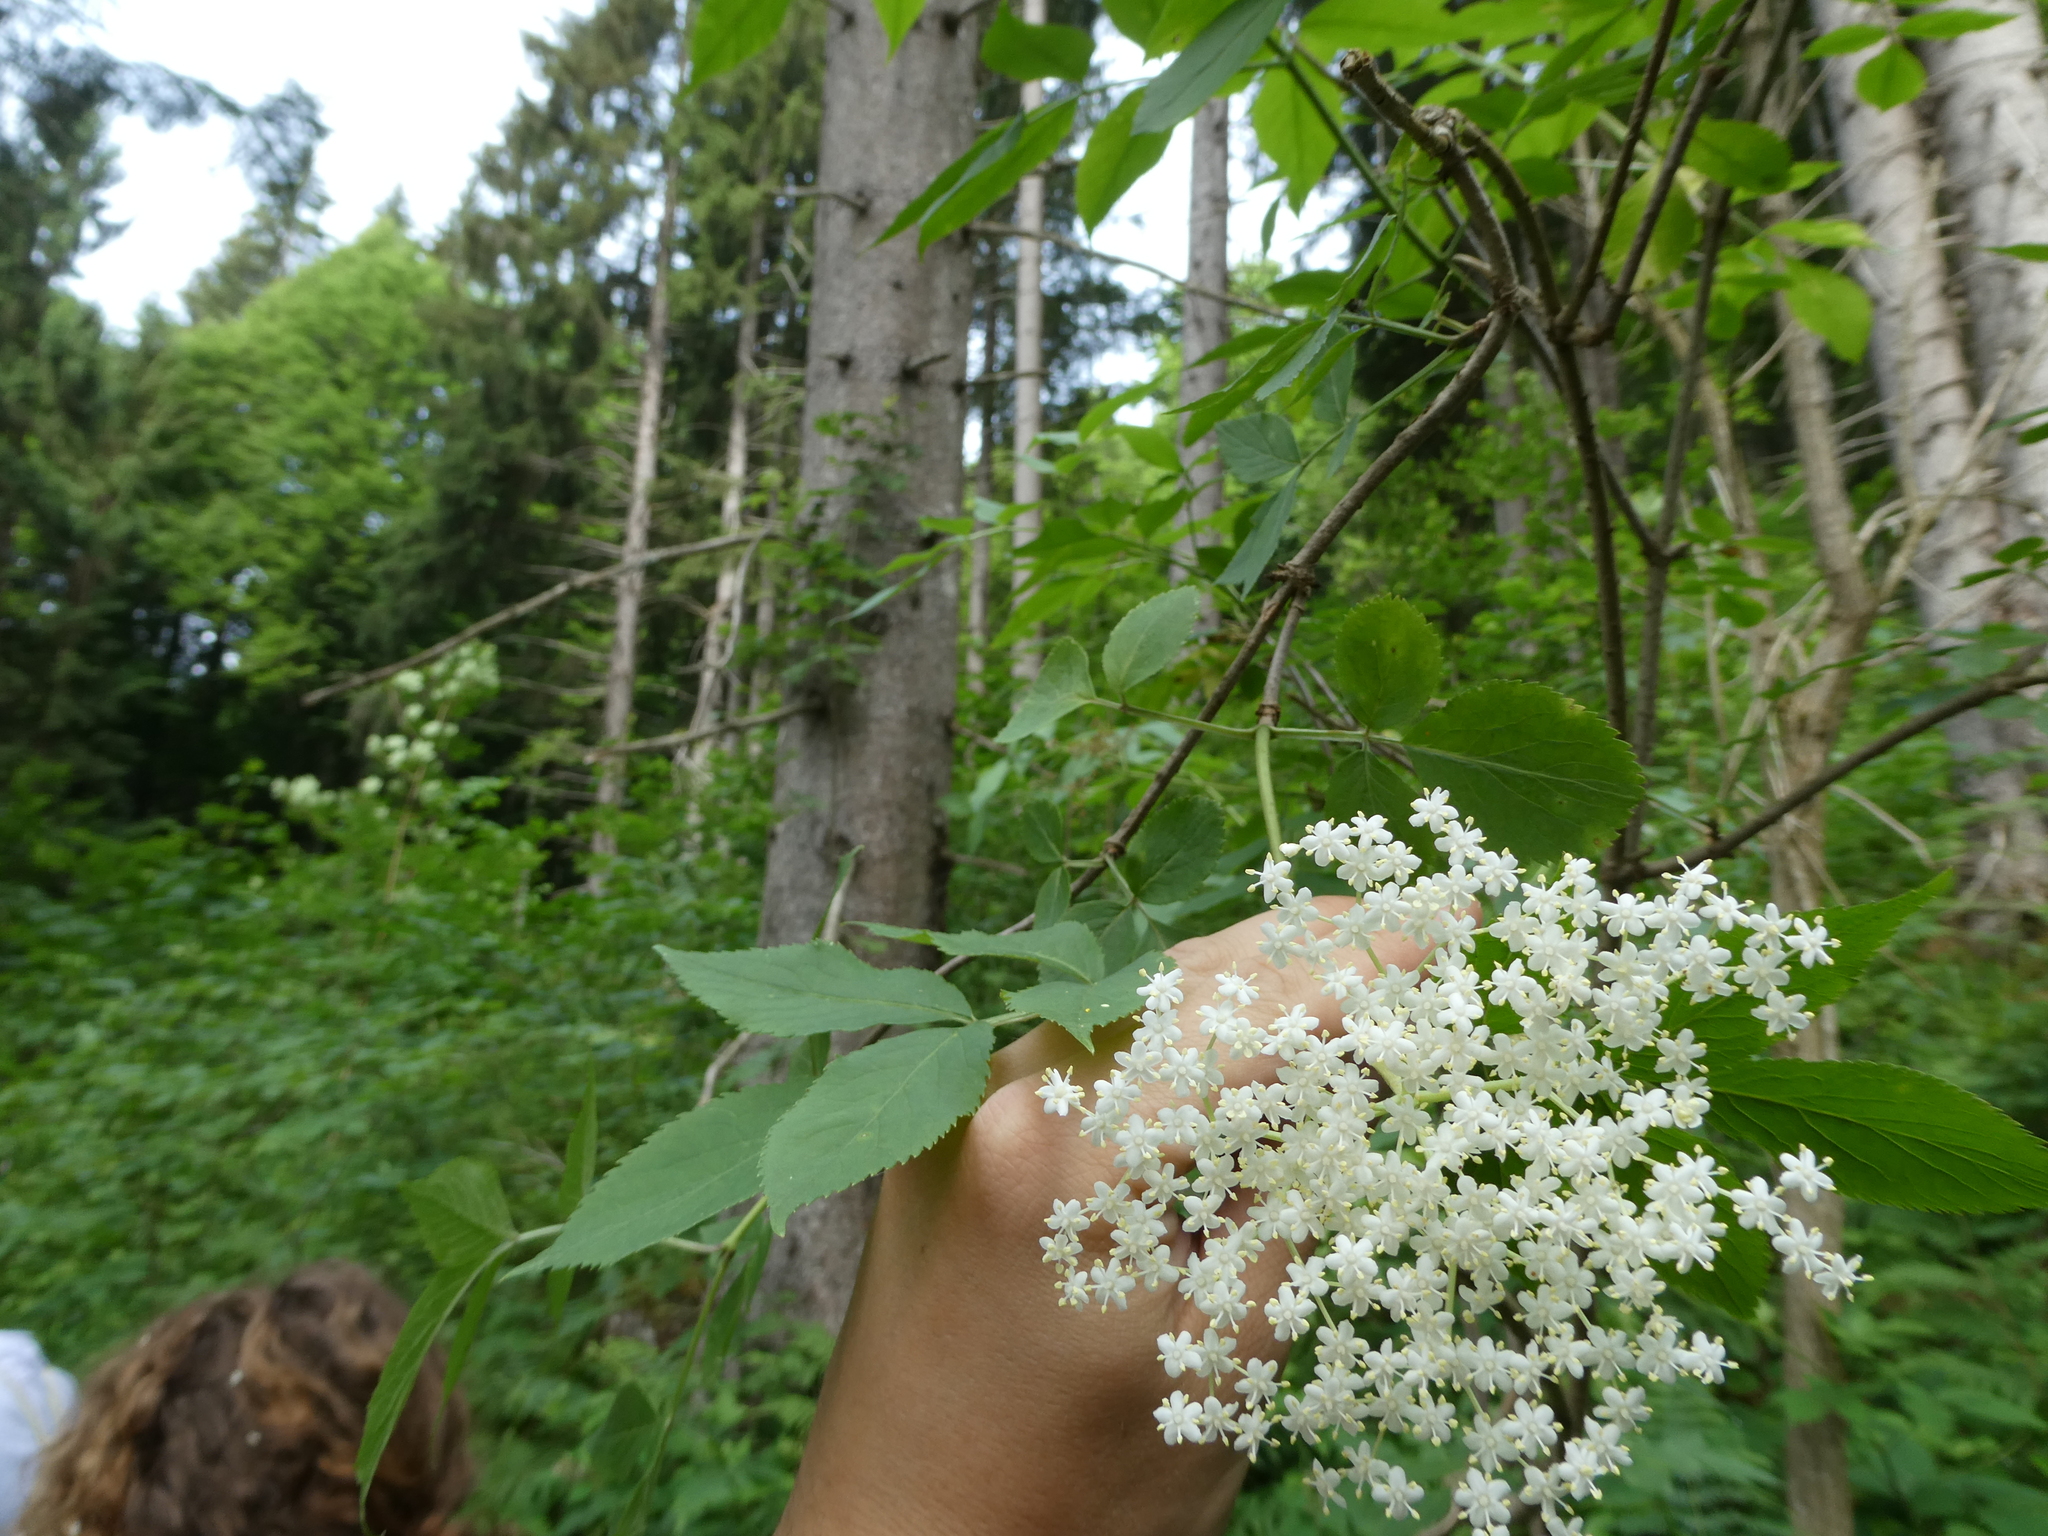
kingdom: Plantae
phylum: Tracheophyta
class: Magnoliopsida
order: Dipsacales
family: Viburnaceae
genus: Sambucus
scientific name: Sambucus nigra
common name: Elder
